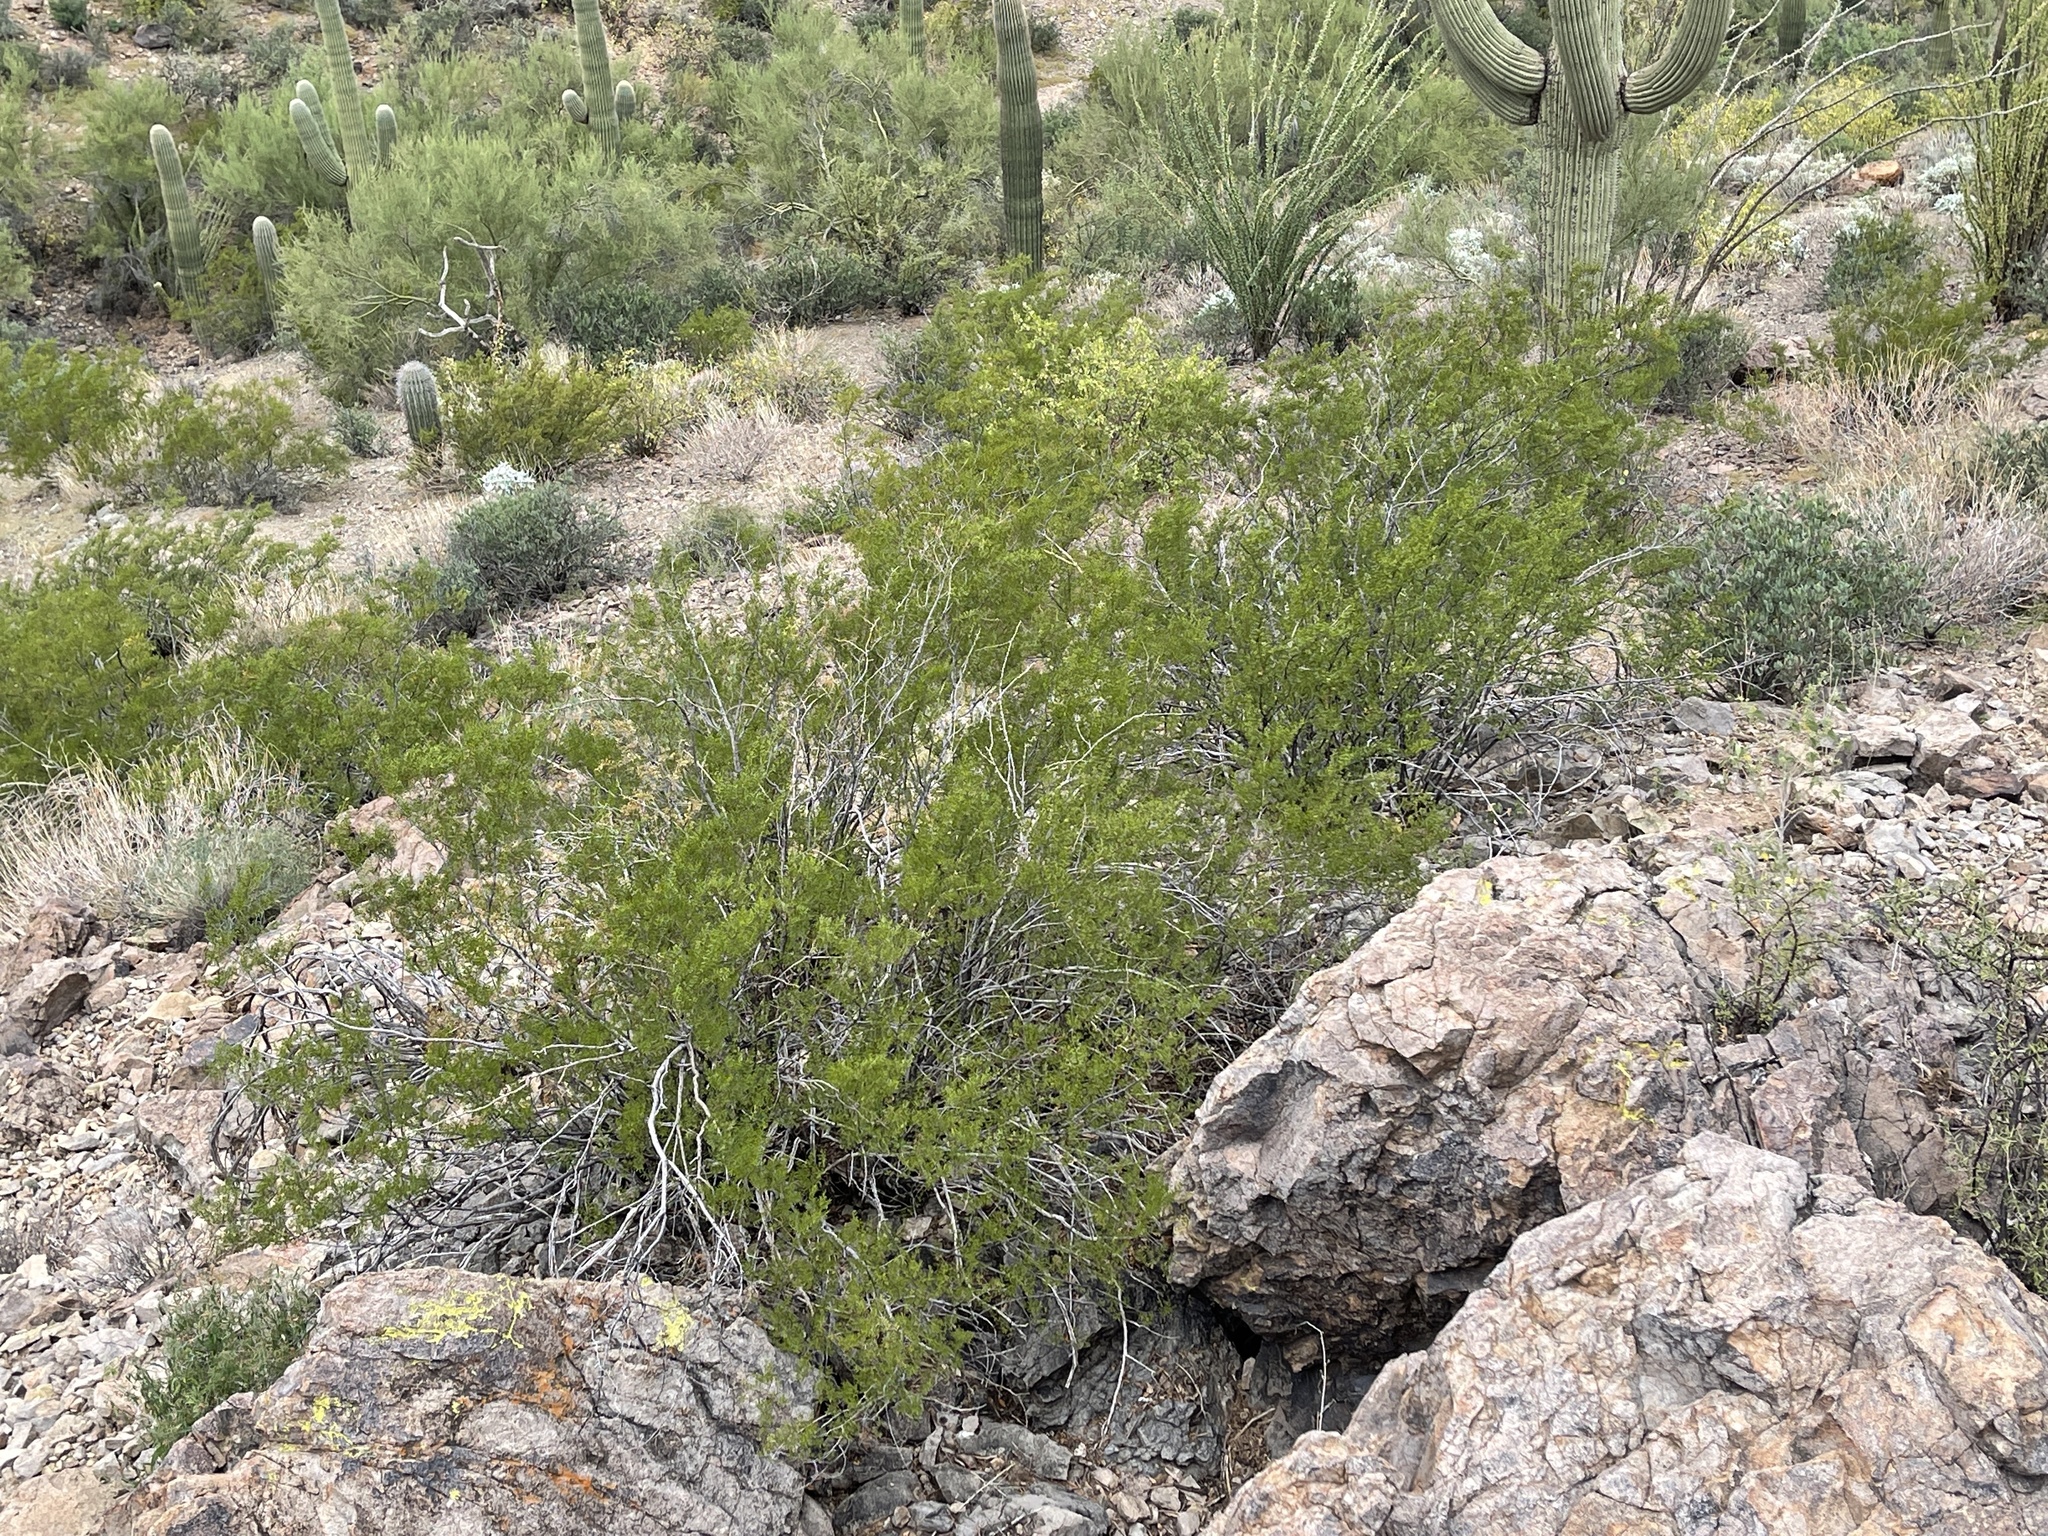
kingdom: Plantae
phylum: Tracheophyta
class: Magnoliopsida
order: Zygophyllales
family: Zygophyllaceae
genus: Larrea
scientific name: Larrea tridentata
